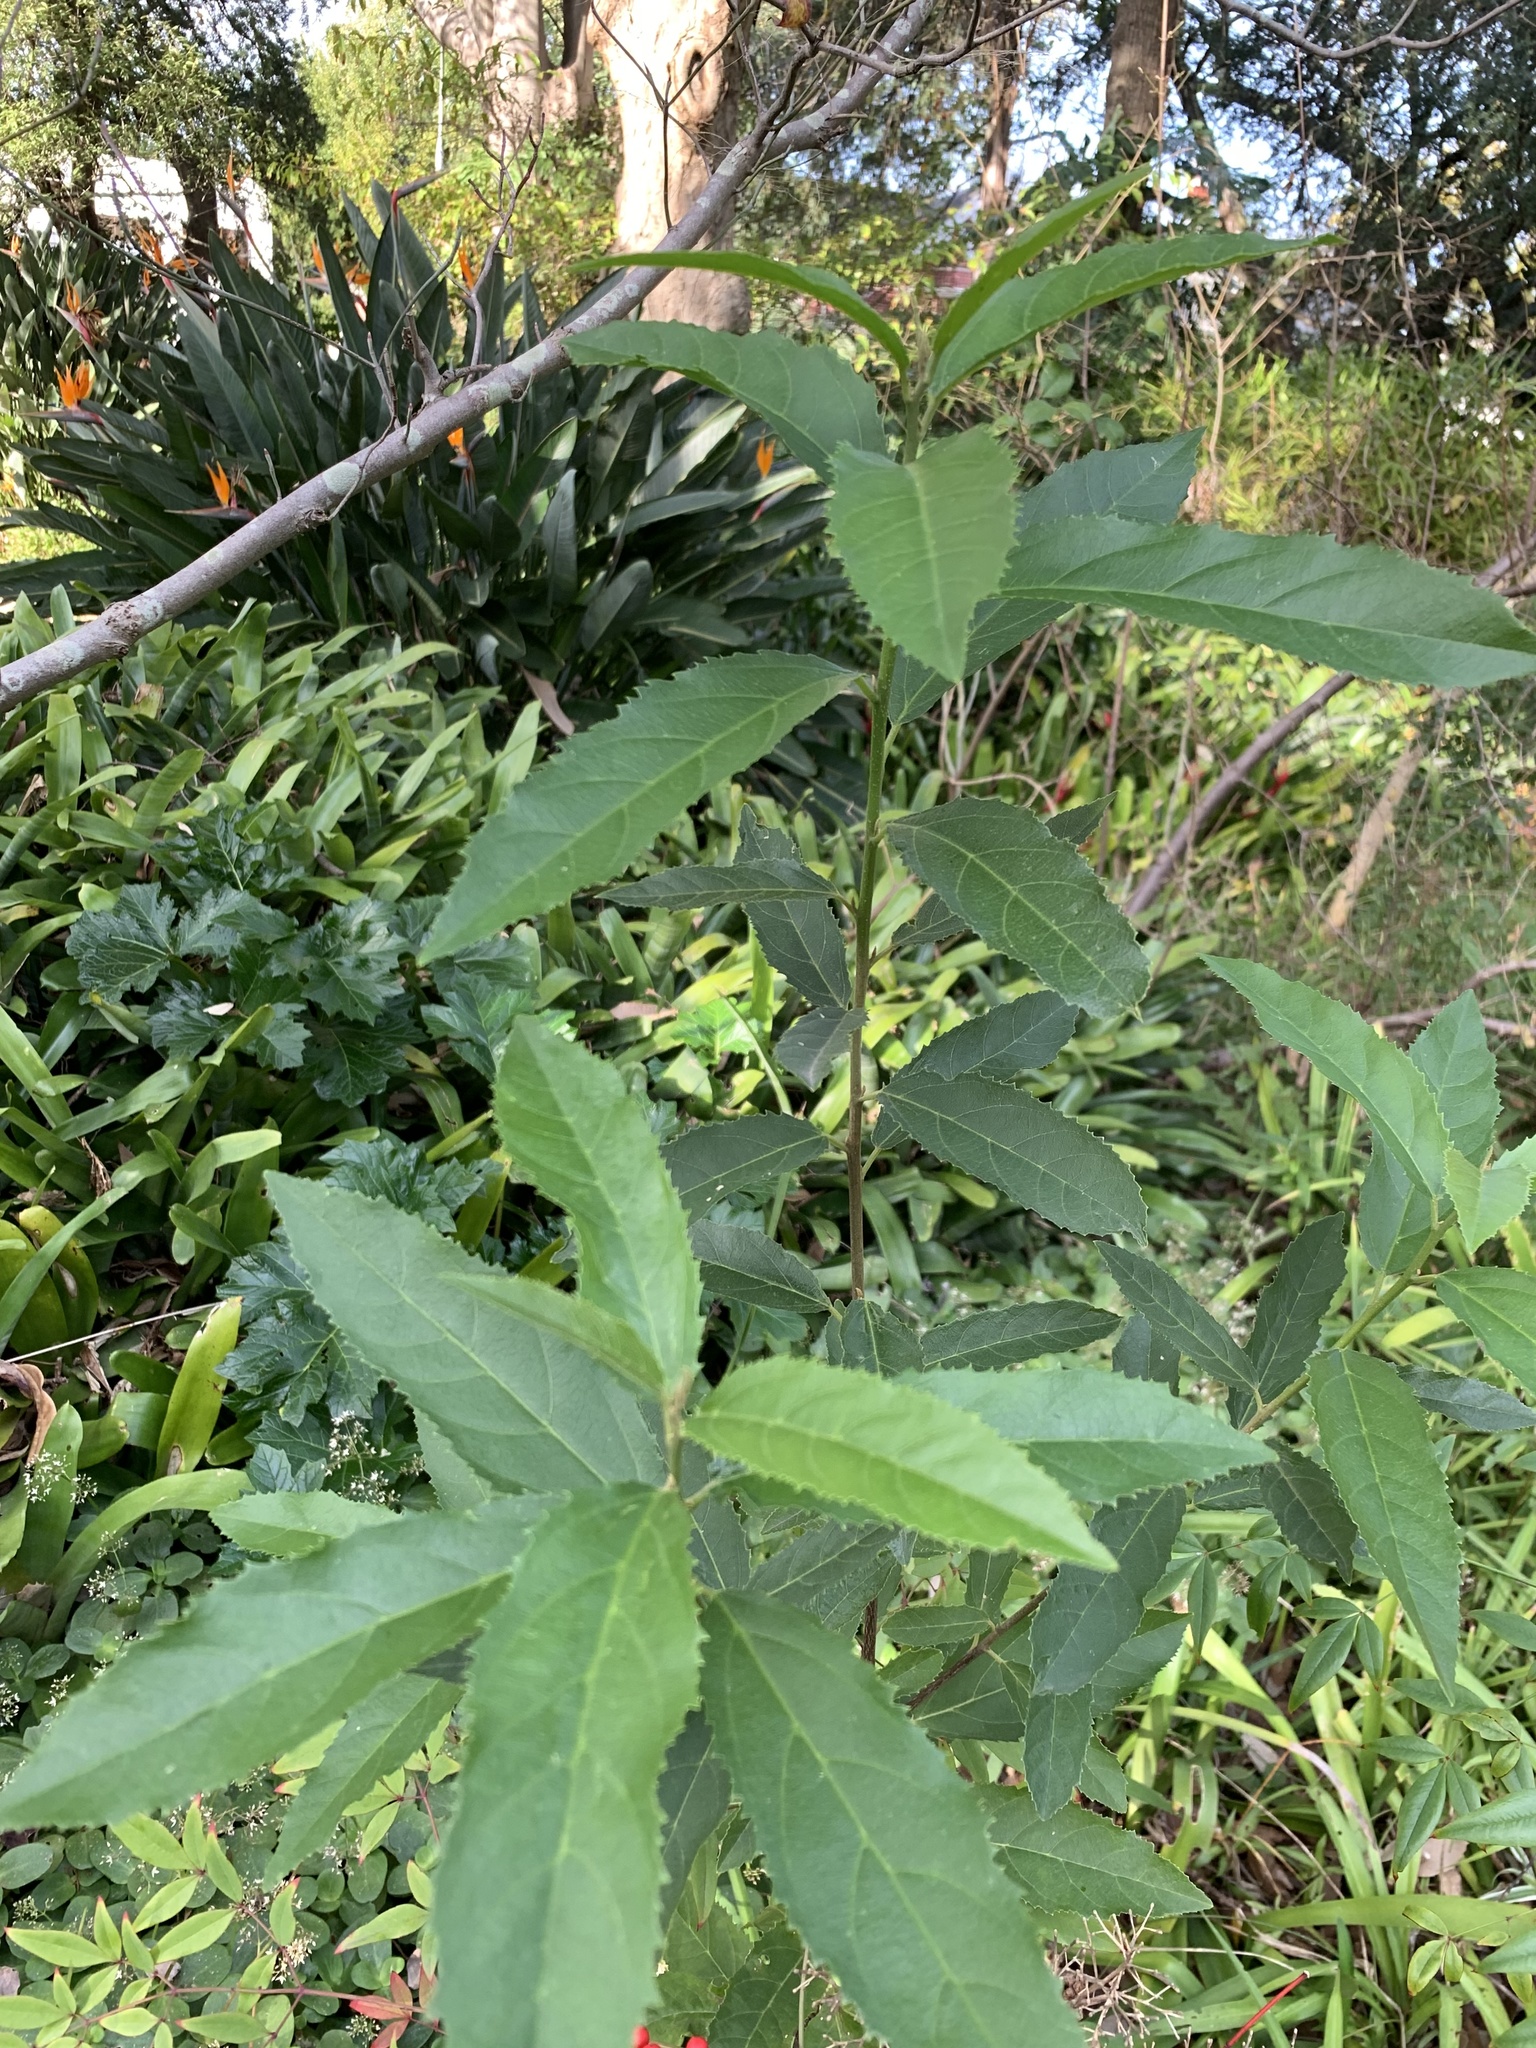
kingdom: Plantae
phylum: Tracheophyta
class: Magnoliopsida
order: Malpighiales
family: Achariaceae
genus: Kiggelaria
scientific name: Kiggelaria africana
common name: Wild peach
